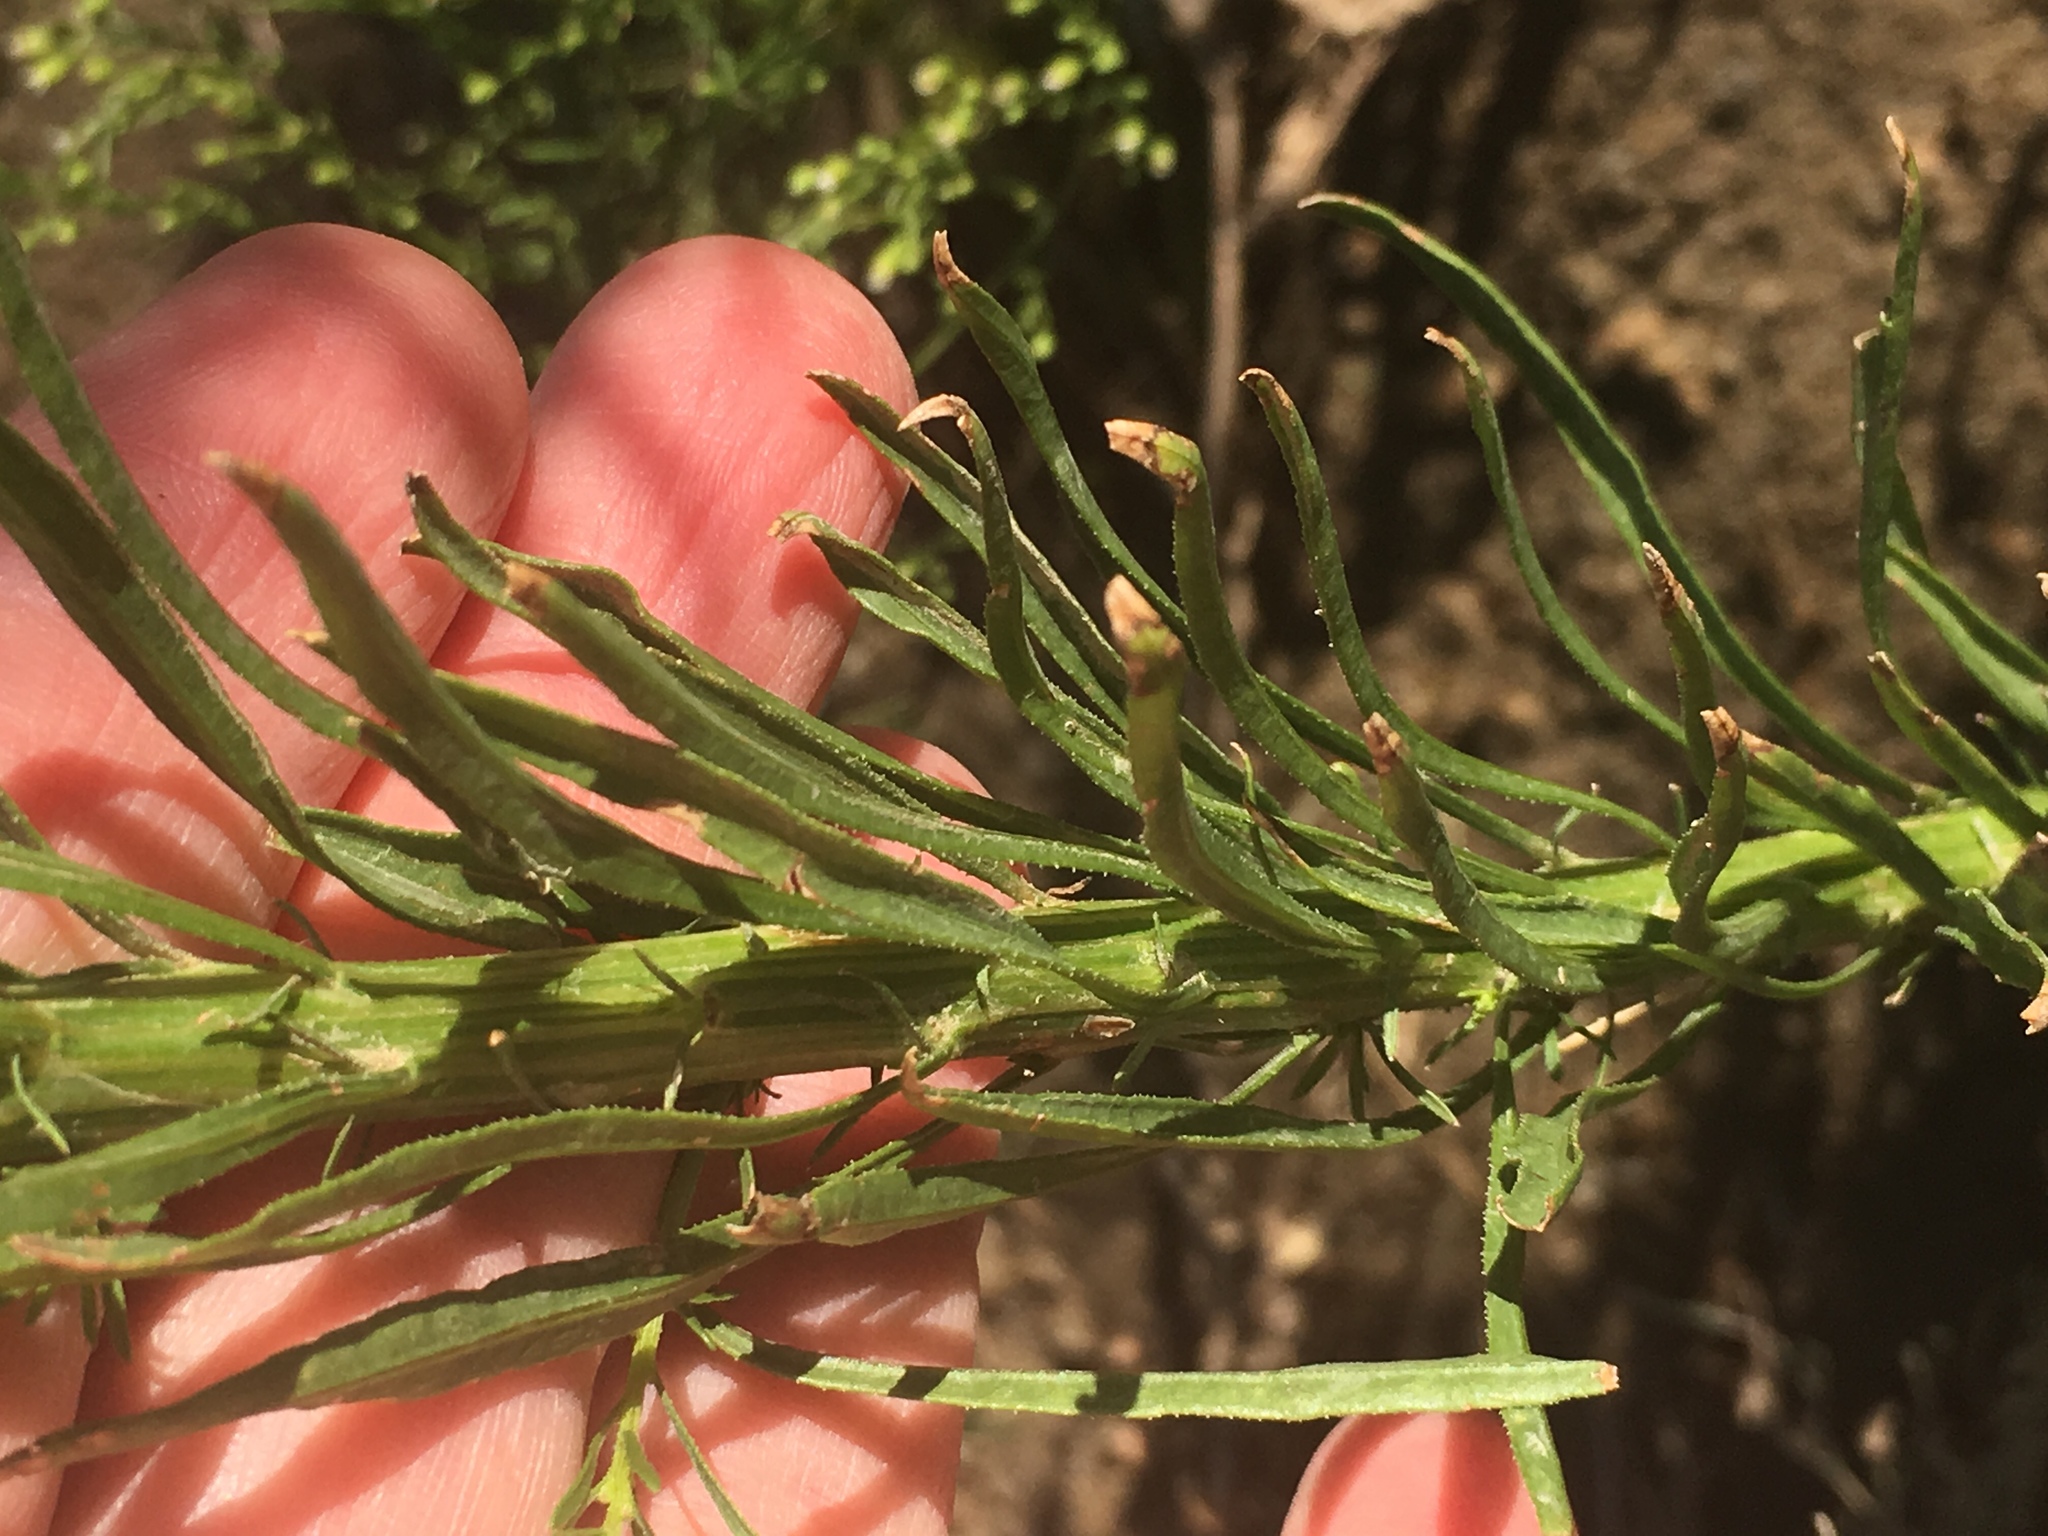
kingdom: Plantae
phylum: Tracheophyta
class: Magnoliopsida
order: Asterales
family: Asteraceae
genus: Erigeron
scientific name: Erigeron canadensis
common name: Canadian fleabane
